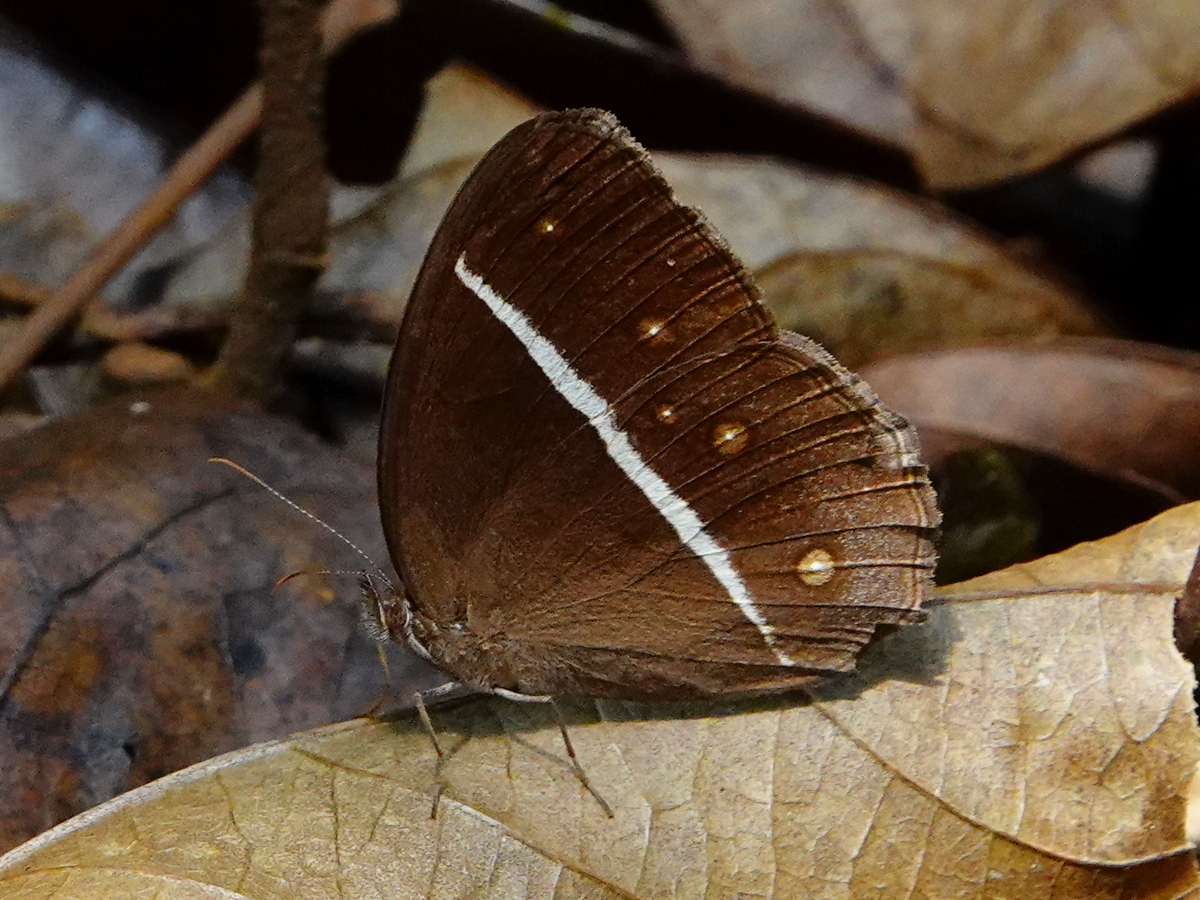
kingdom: Animalia
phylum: Arthropoda
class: Insecta
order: Lepidoptera
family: Nymphalidae
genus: Orsotriaena
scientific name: Orsotriaena medus
